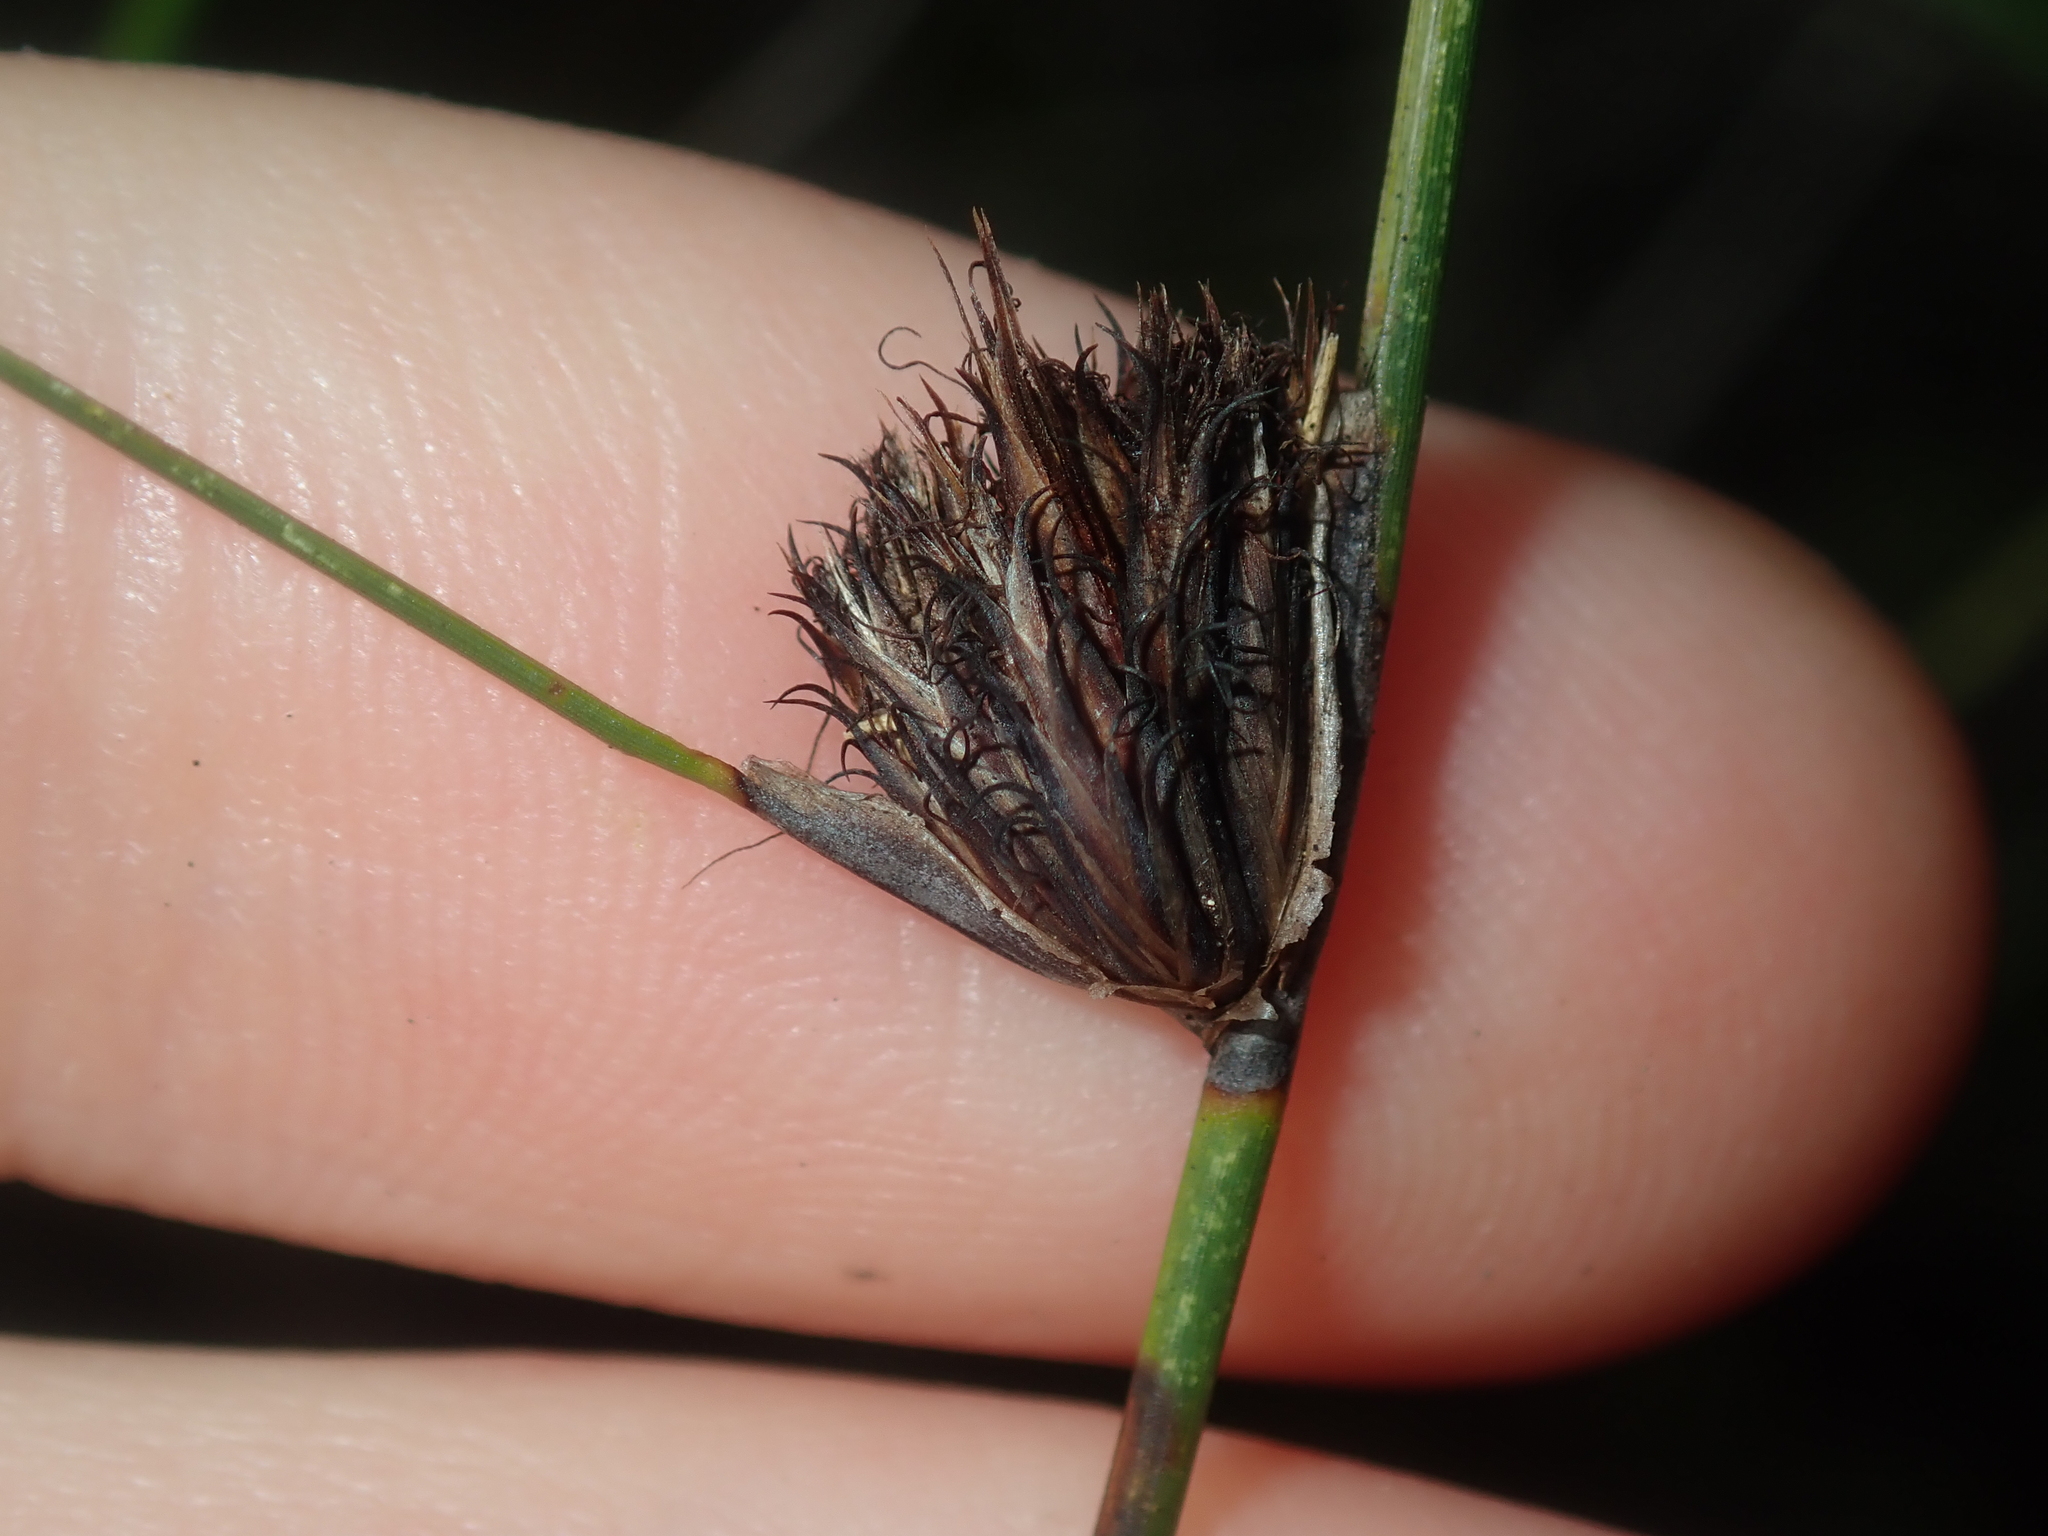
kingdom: Plantae
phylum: Tracheophyta
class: Liliopsida
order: Poales
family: Cyperaceae
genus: Mesomelaena
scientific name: Mesomelaena pseudostygia
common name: Semaphore sedge
